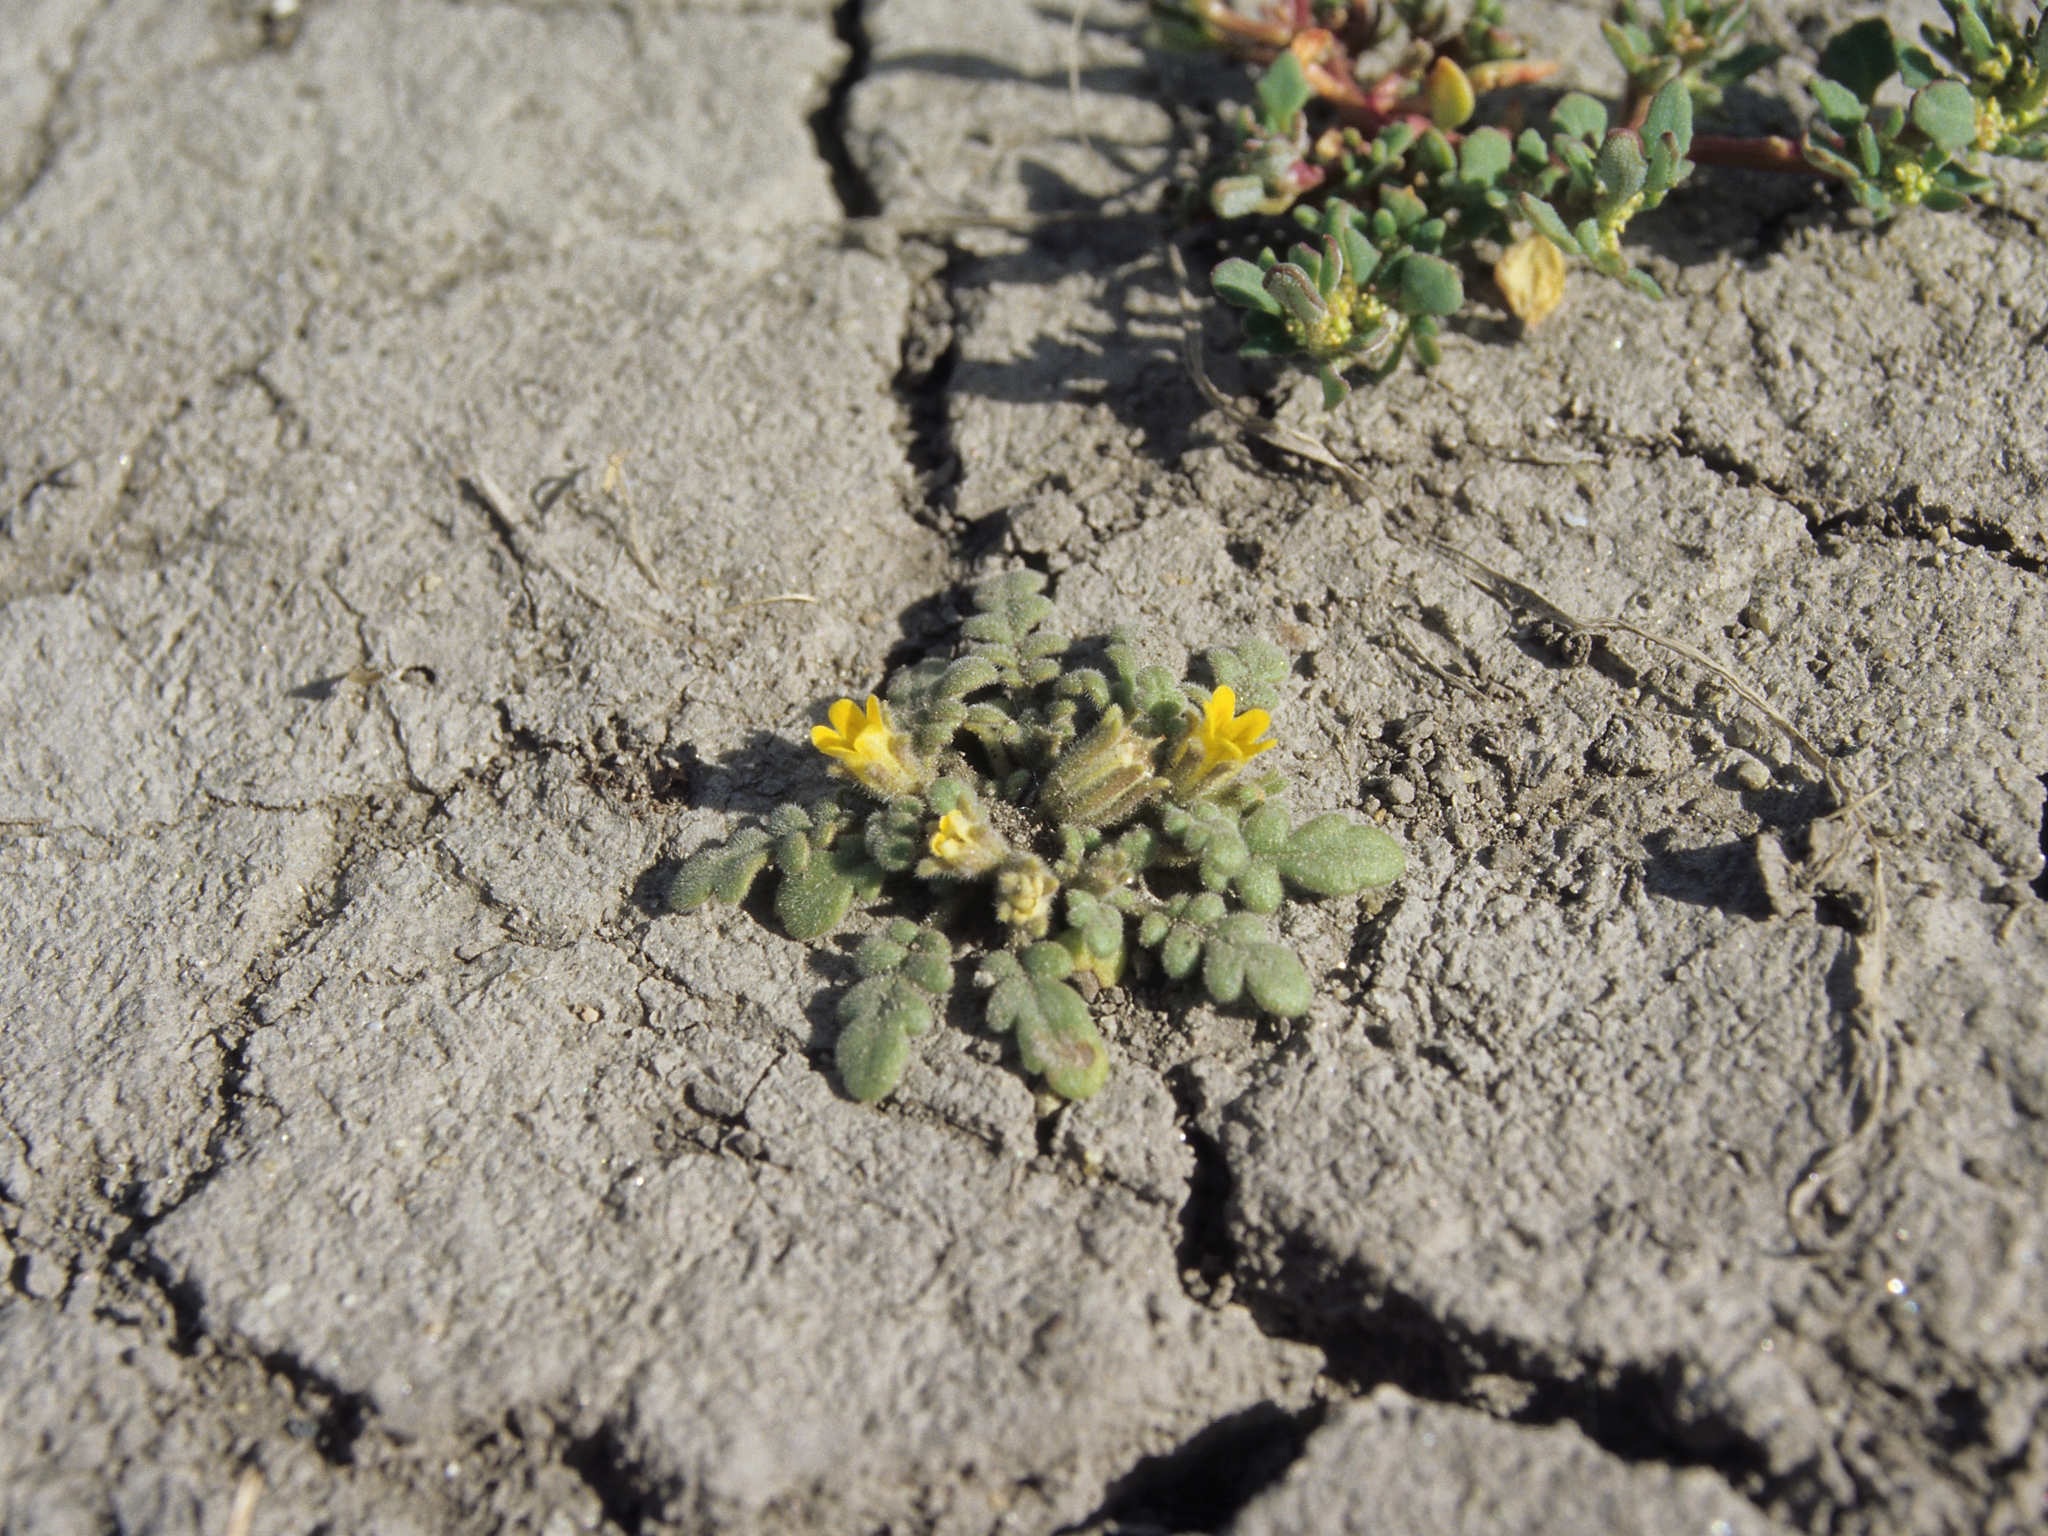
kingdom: Plantae
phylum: Tracheophyta
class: Magnoliopsida
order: Boraginales
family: Hydrophyllaceae
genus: Phacelia
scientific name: Phacelia inundata
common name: Playa phacelia
